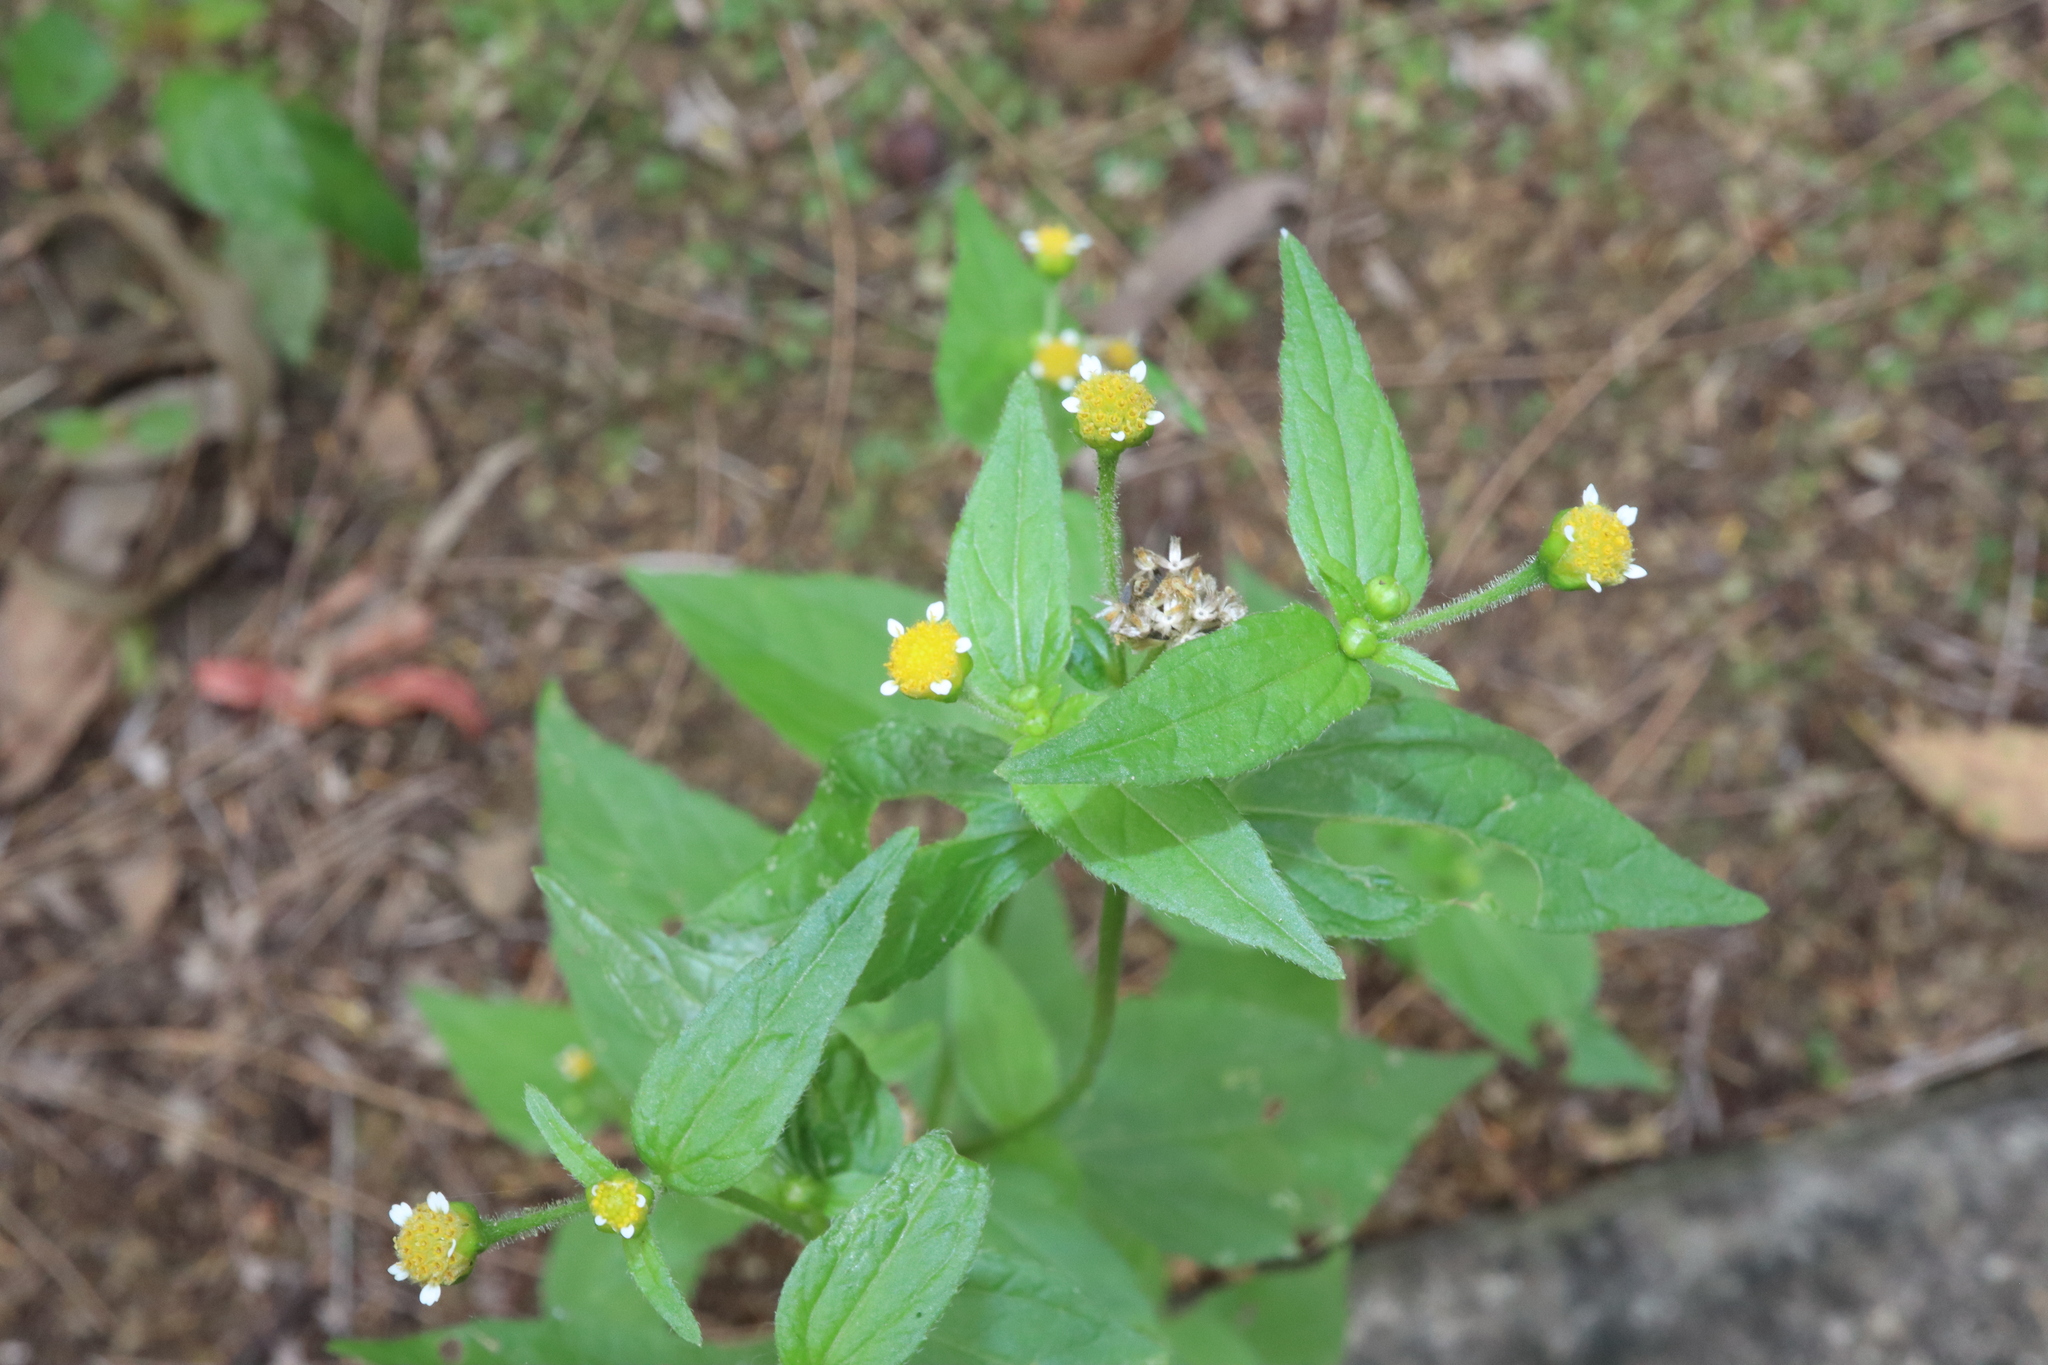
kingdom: Plantae
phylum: Tracheophyta
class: Magnoliopsida
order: Asterales
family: Asteraceae
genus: Galinsoga
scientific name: Galinsoga parviflora
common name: Gallant soldier
